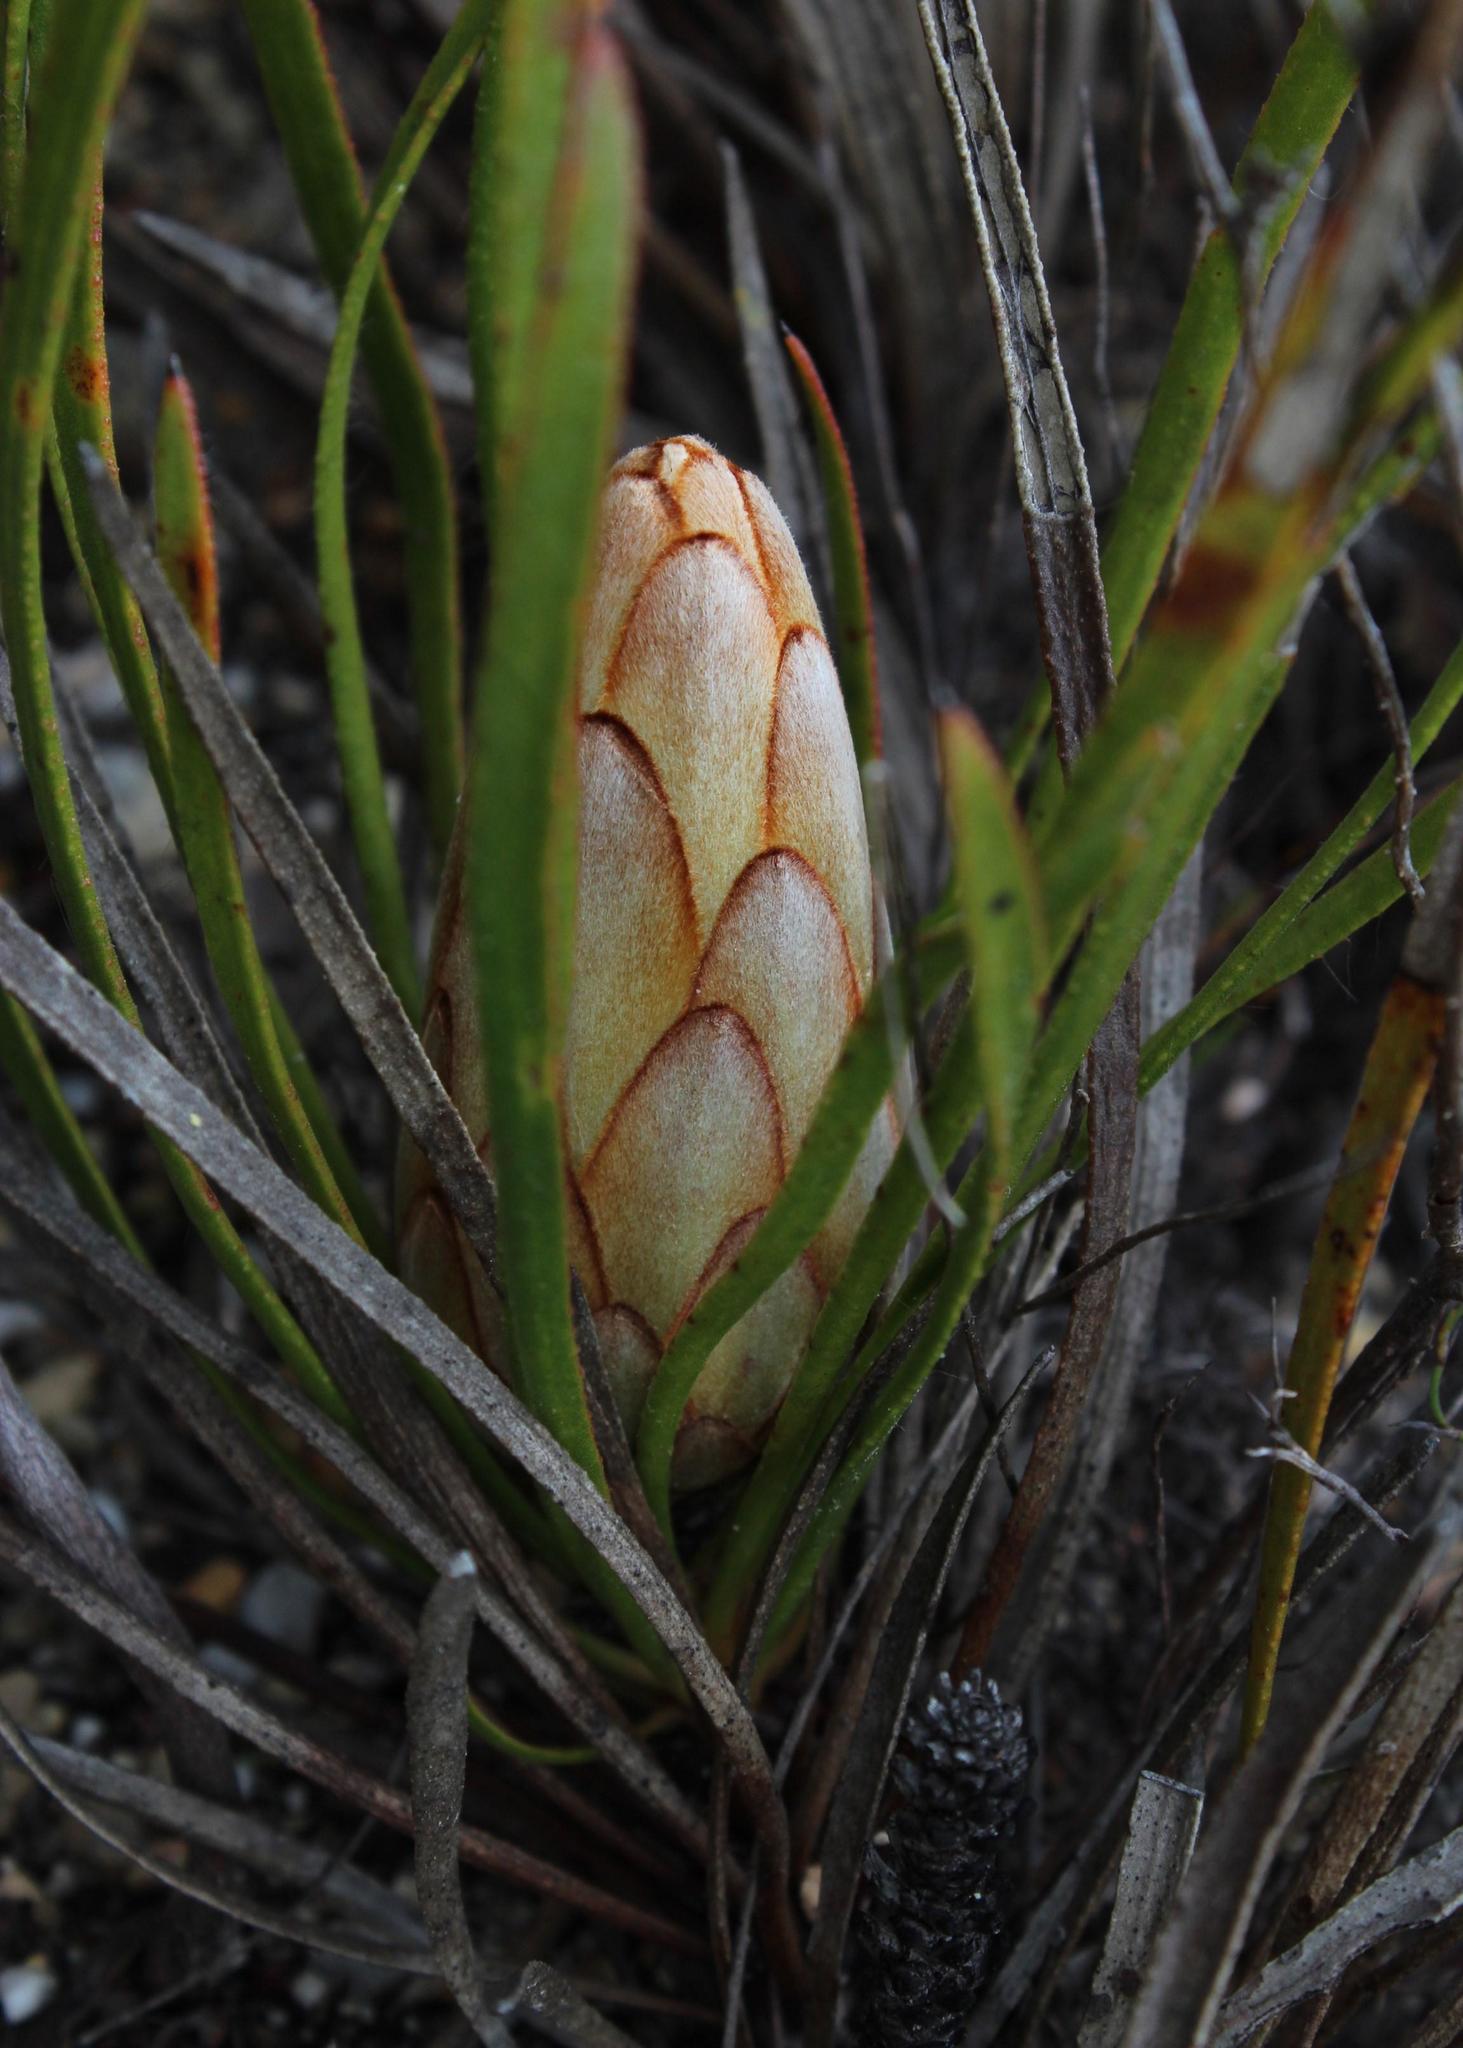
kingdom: Plantae
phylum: Tracheophyta
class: Magnoliopsida
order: Proteales
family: Proteaceae
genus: Protea
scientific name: Protea aspera
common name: Rough-leaf sugarbush
